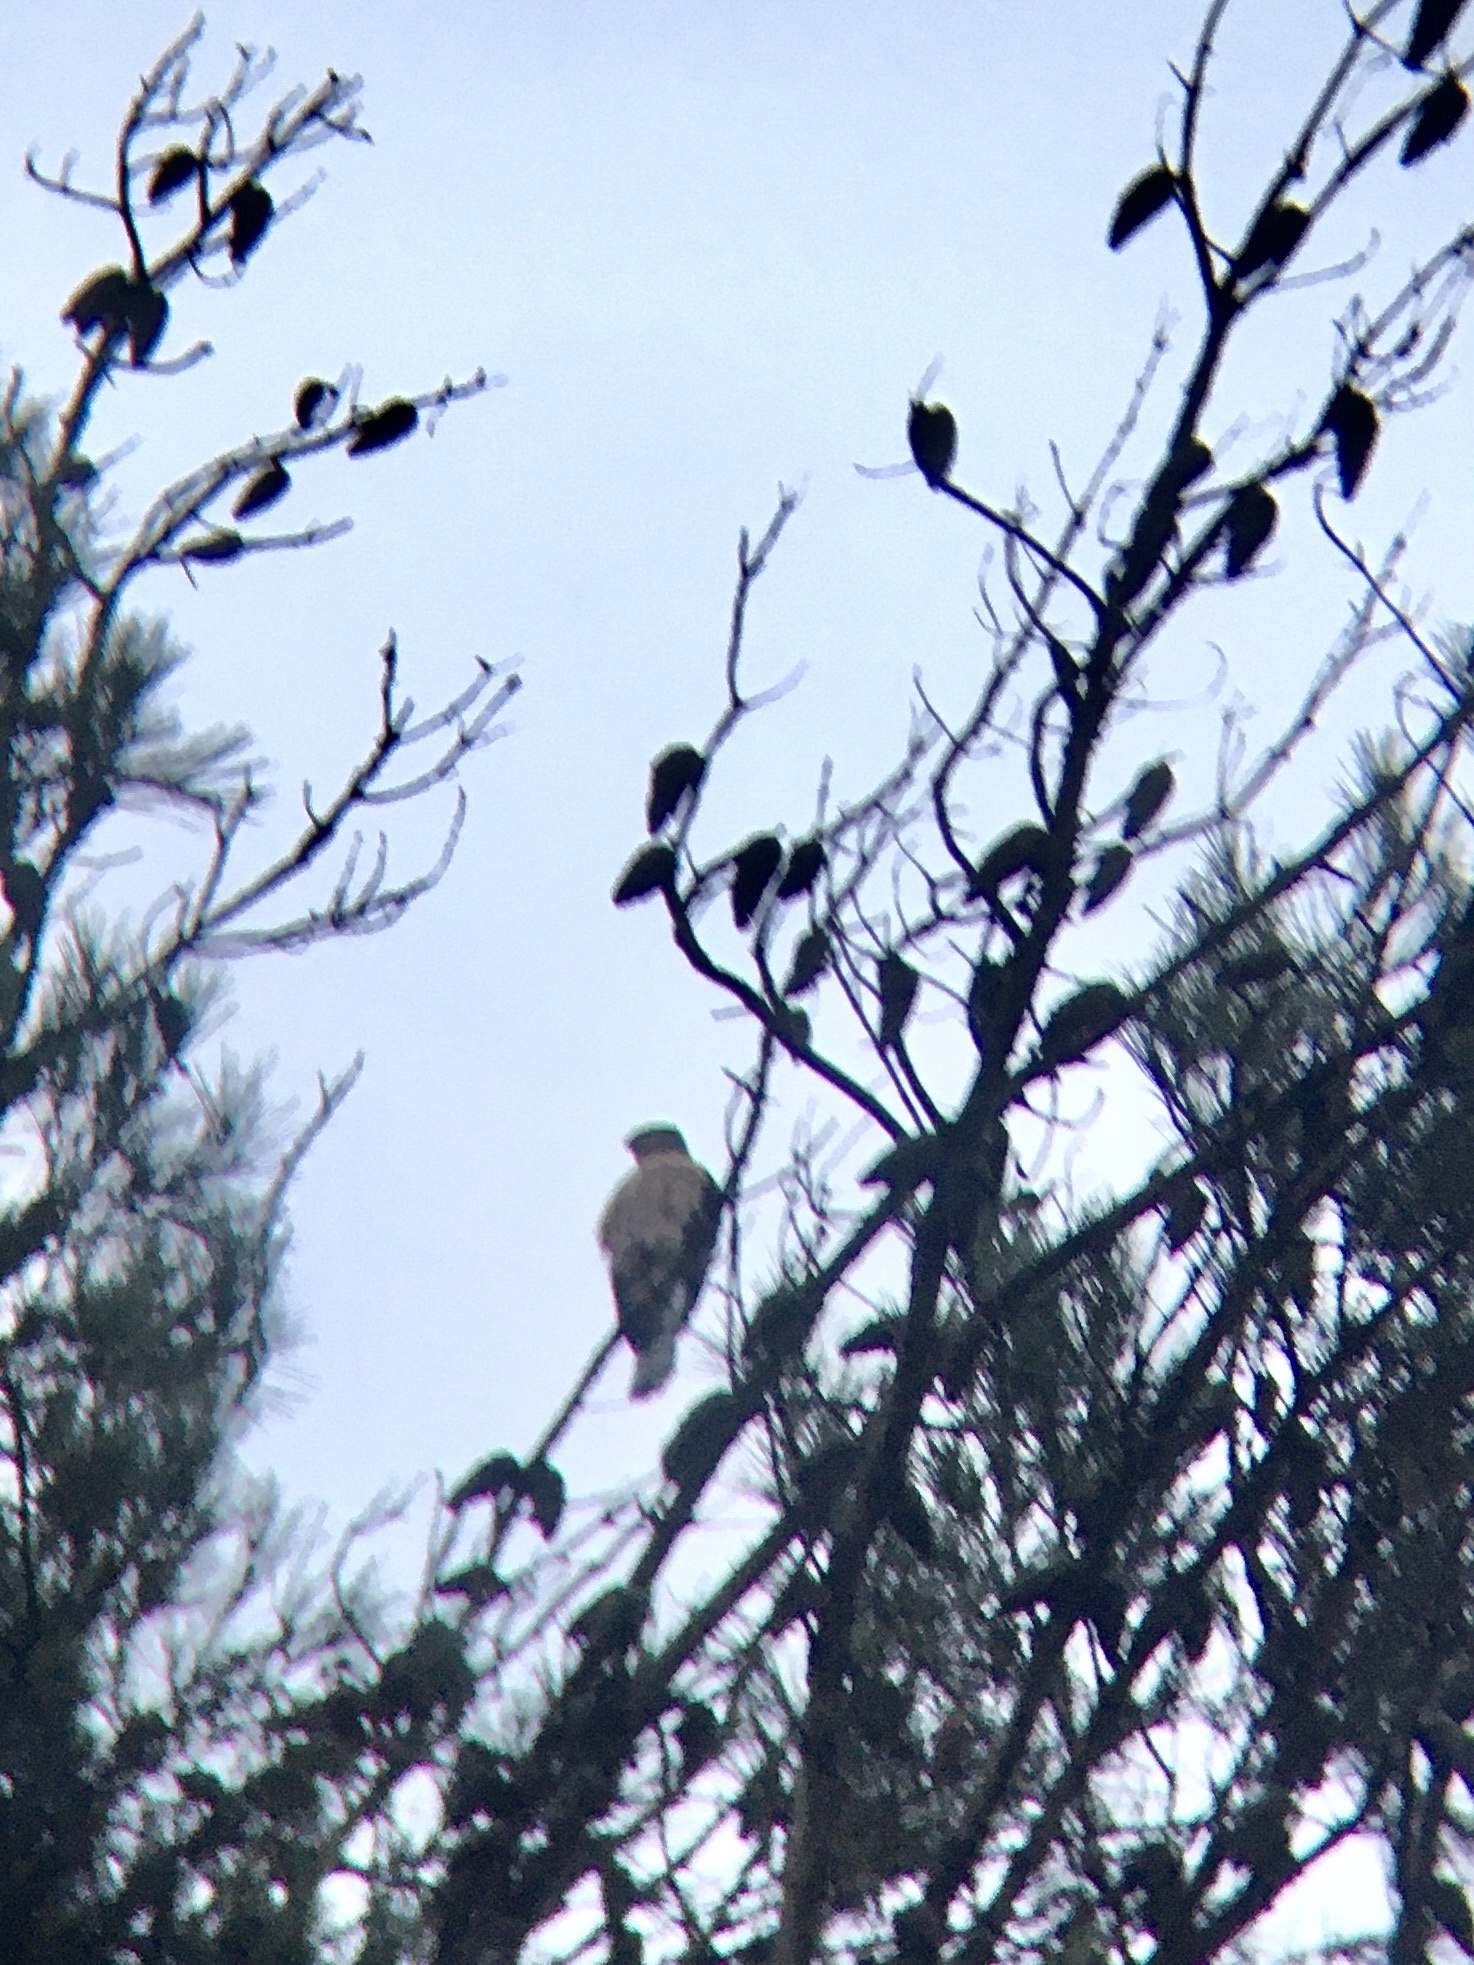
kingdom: Animalia
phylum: Chordata
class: Aves
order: Accipitriformes
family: Accipitridae
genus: Accipiter
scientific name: Accipiter cooperii
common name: Cooper's hawk
